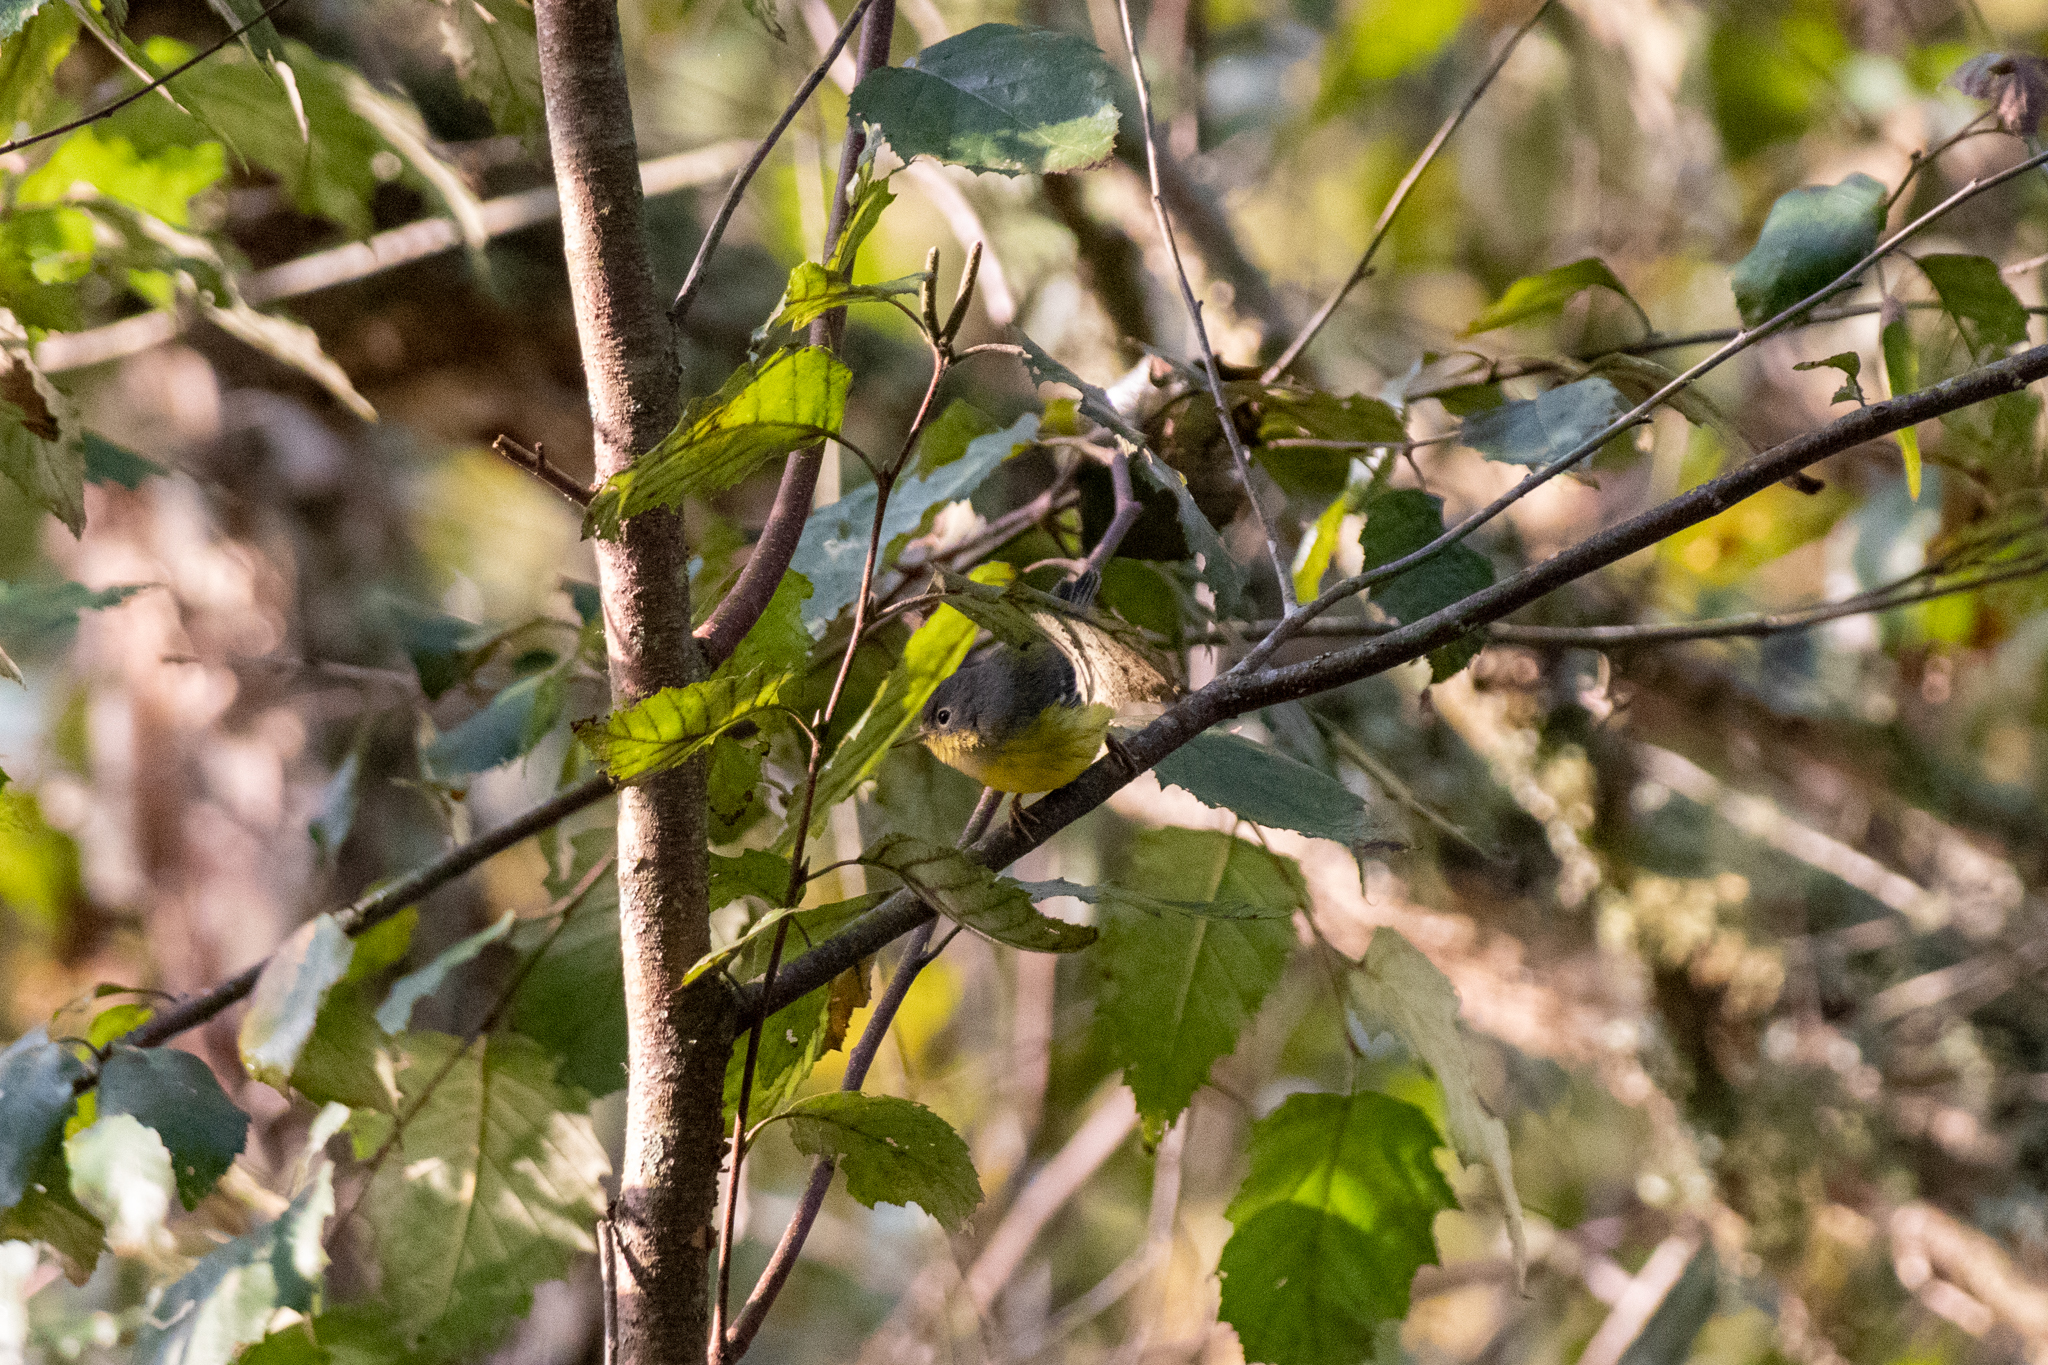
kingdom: Animalia
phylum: Chordata
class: Aves
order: Passeriformes
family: Parulidae
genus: Setophaga
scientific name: Setophaga magnolia
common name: Magnolia warbler
